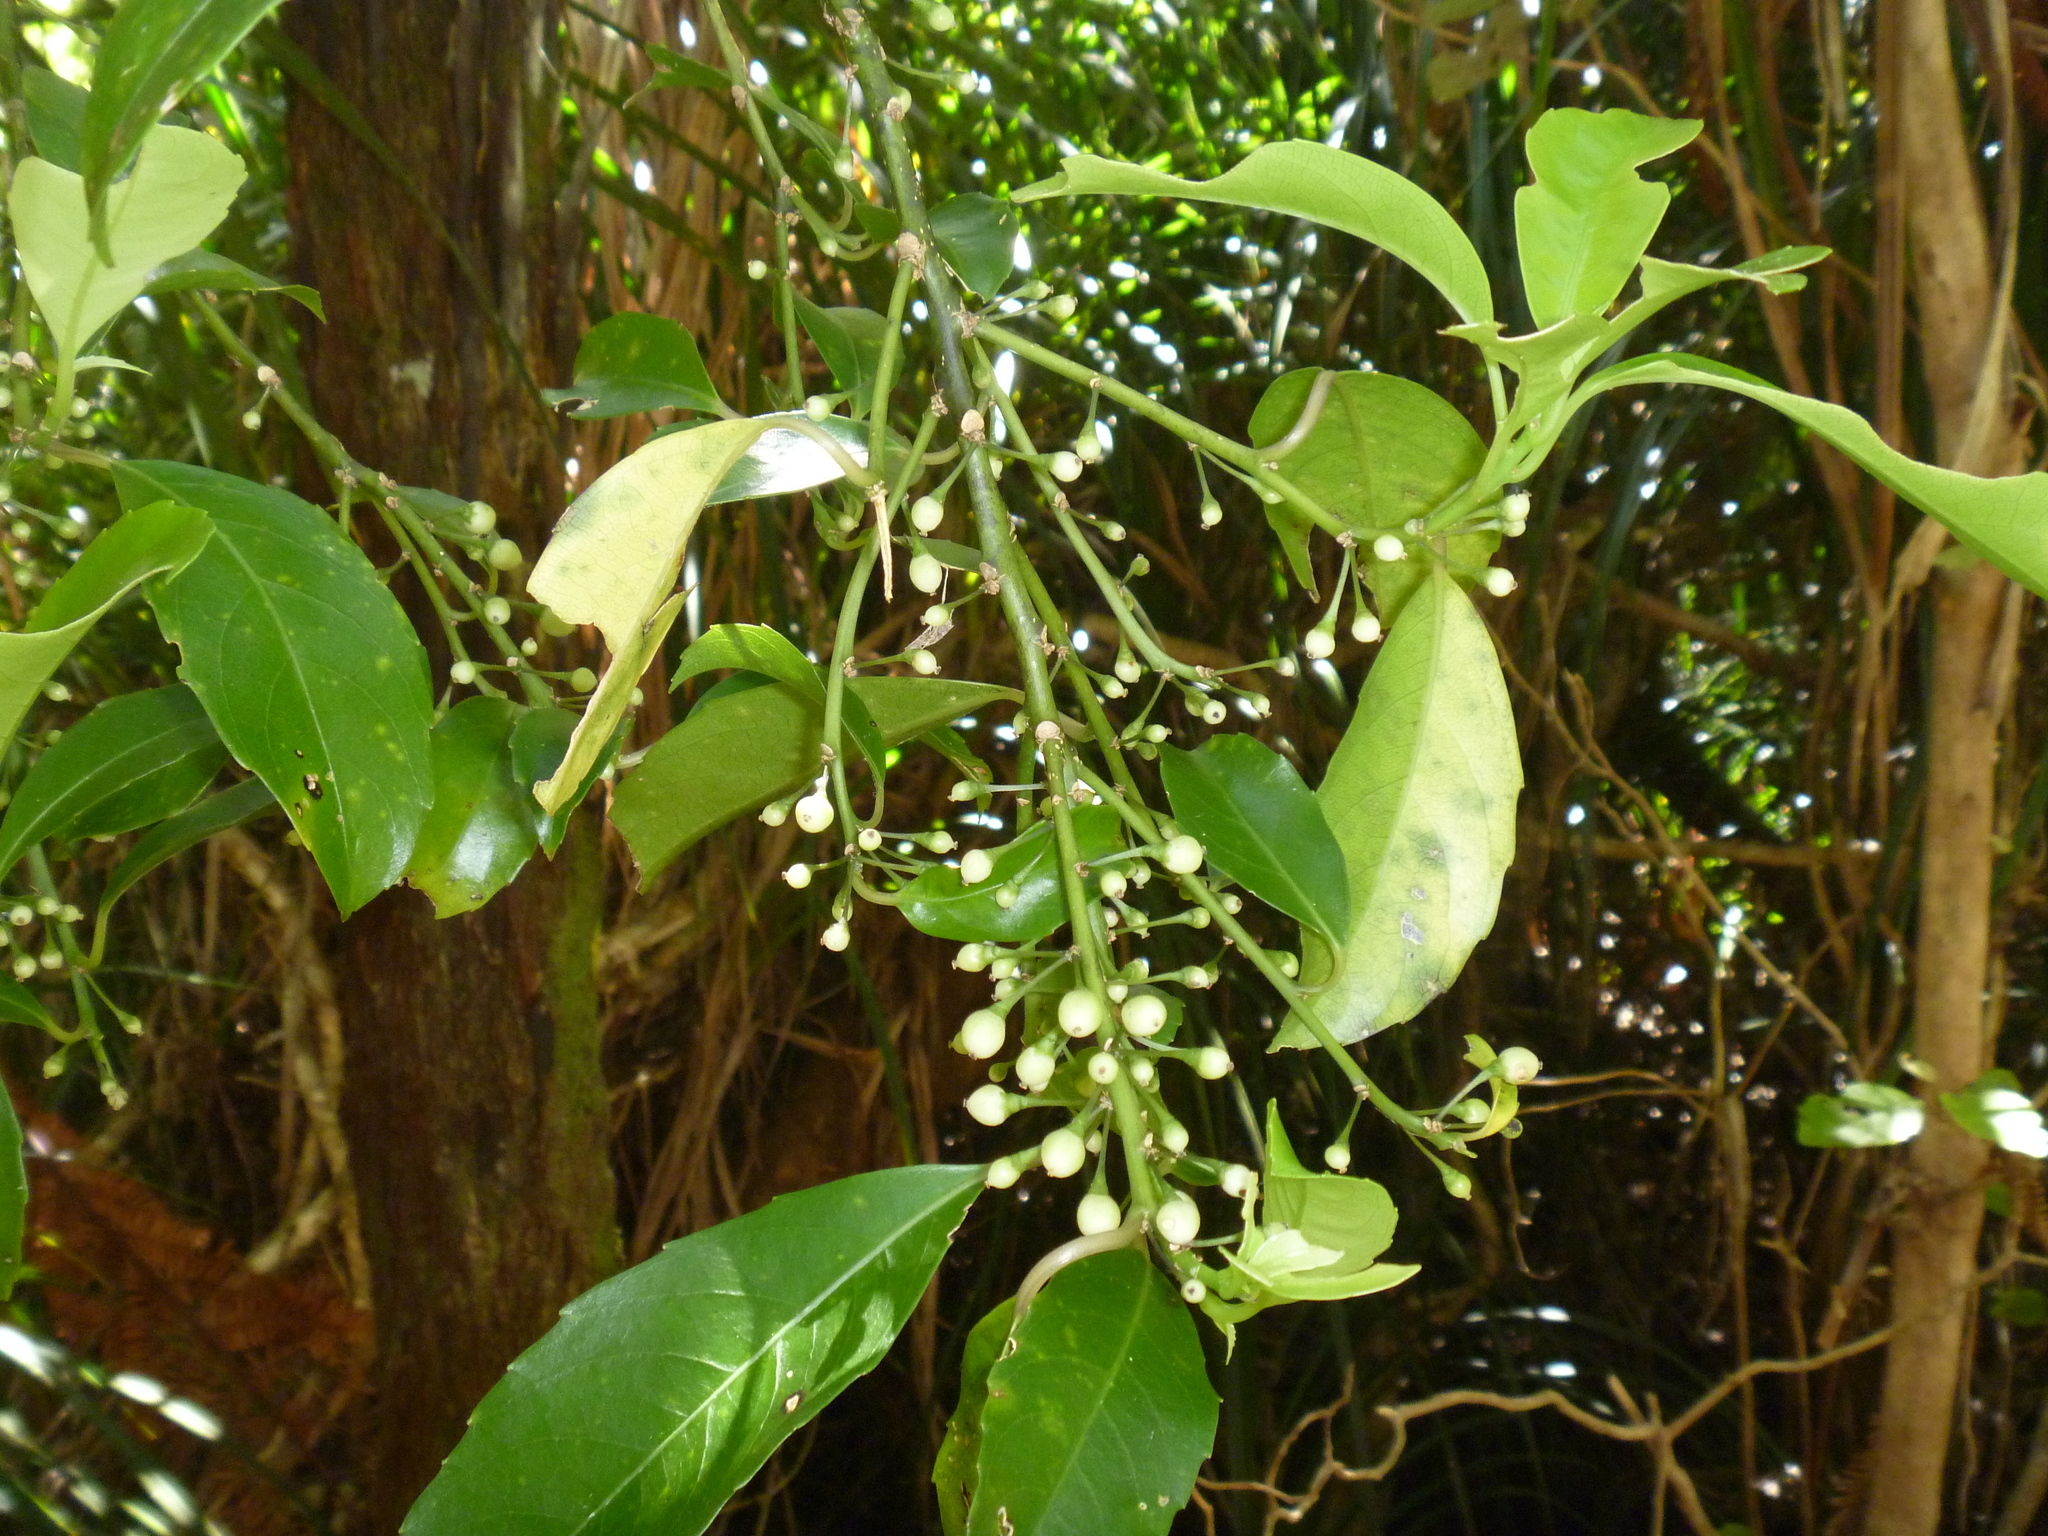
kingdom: Plantae
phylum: Tracheophyta
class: Magnoliopsida
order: Malpighiales
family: Violaceae
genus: Melicytus
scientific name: Melicytus macrophyllus
